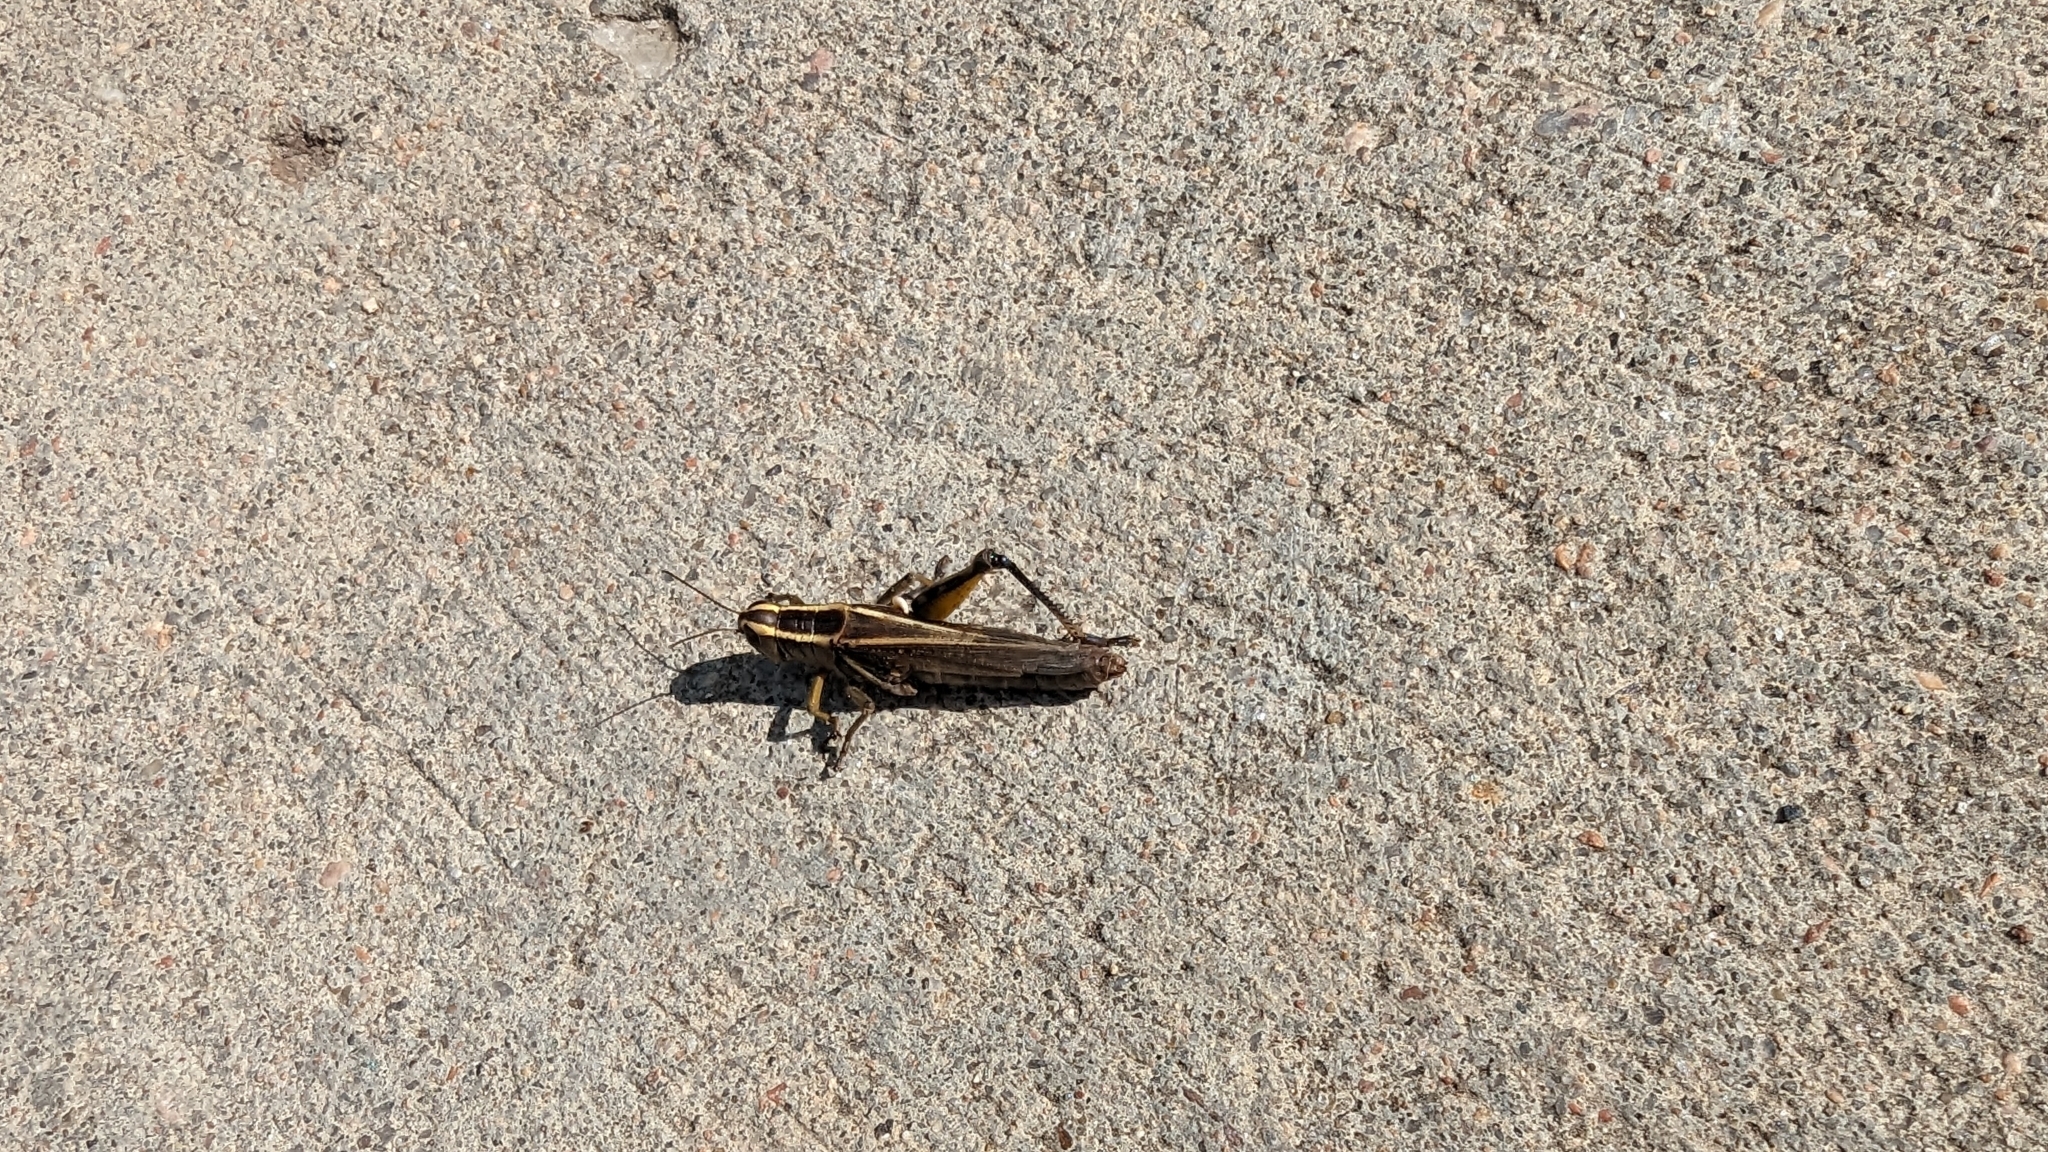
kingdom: Animalia
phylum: Arthropoda
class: Insecta
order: Orthoptera
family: Acrididae
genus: Melanoplus
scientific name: Melanoplus bivittatus
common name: Two-striped grasshopper
